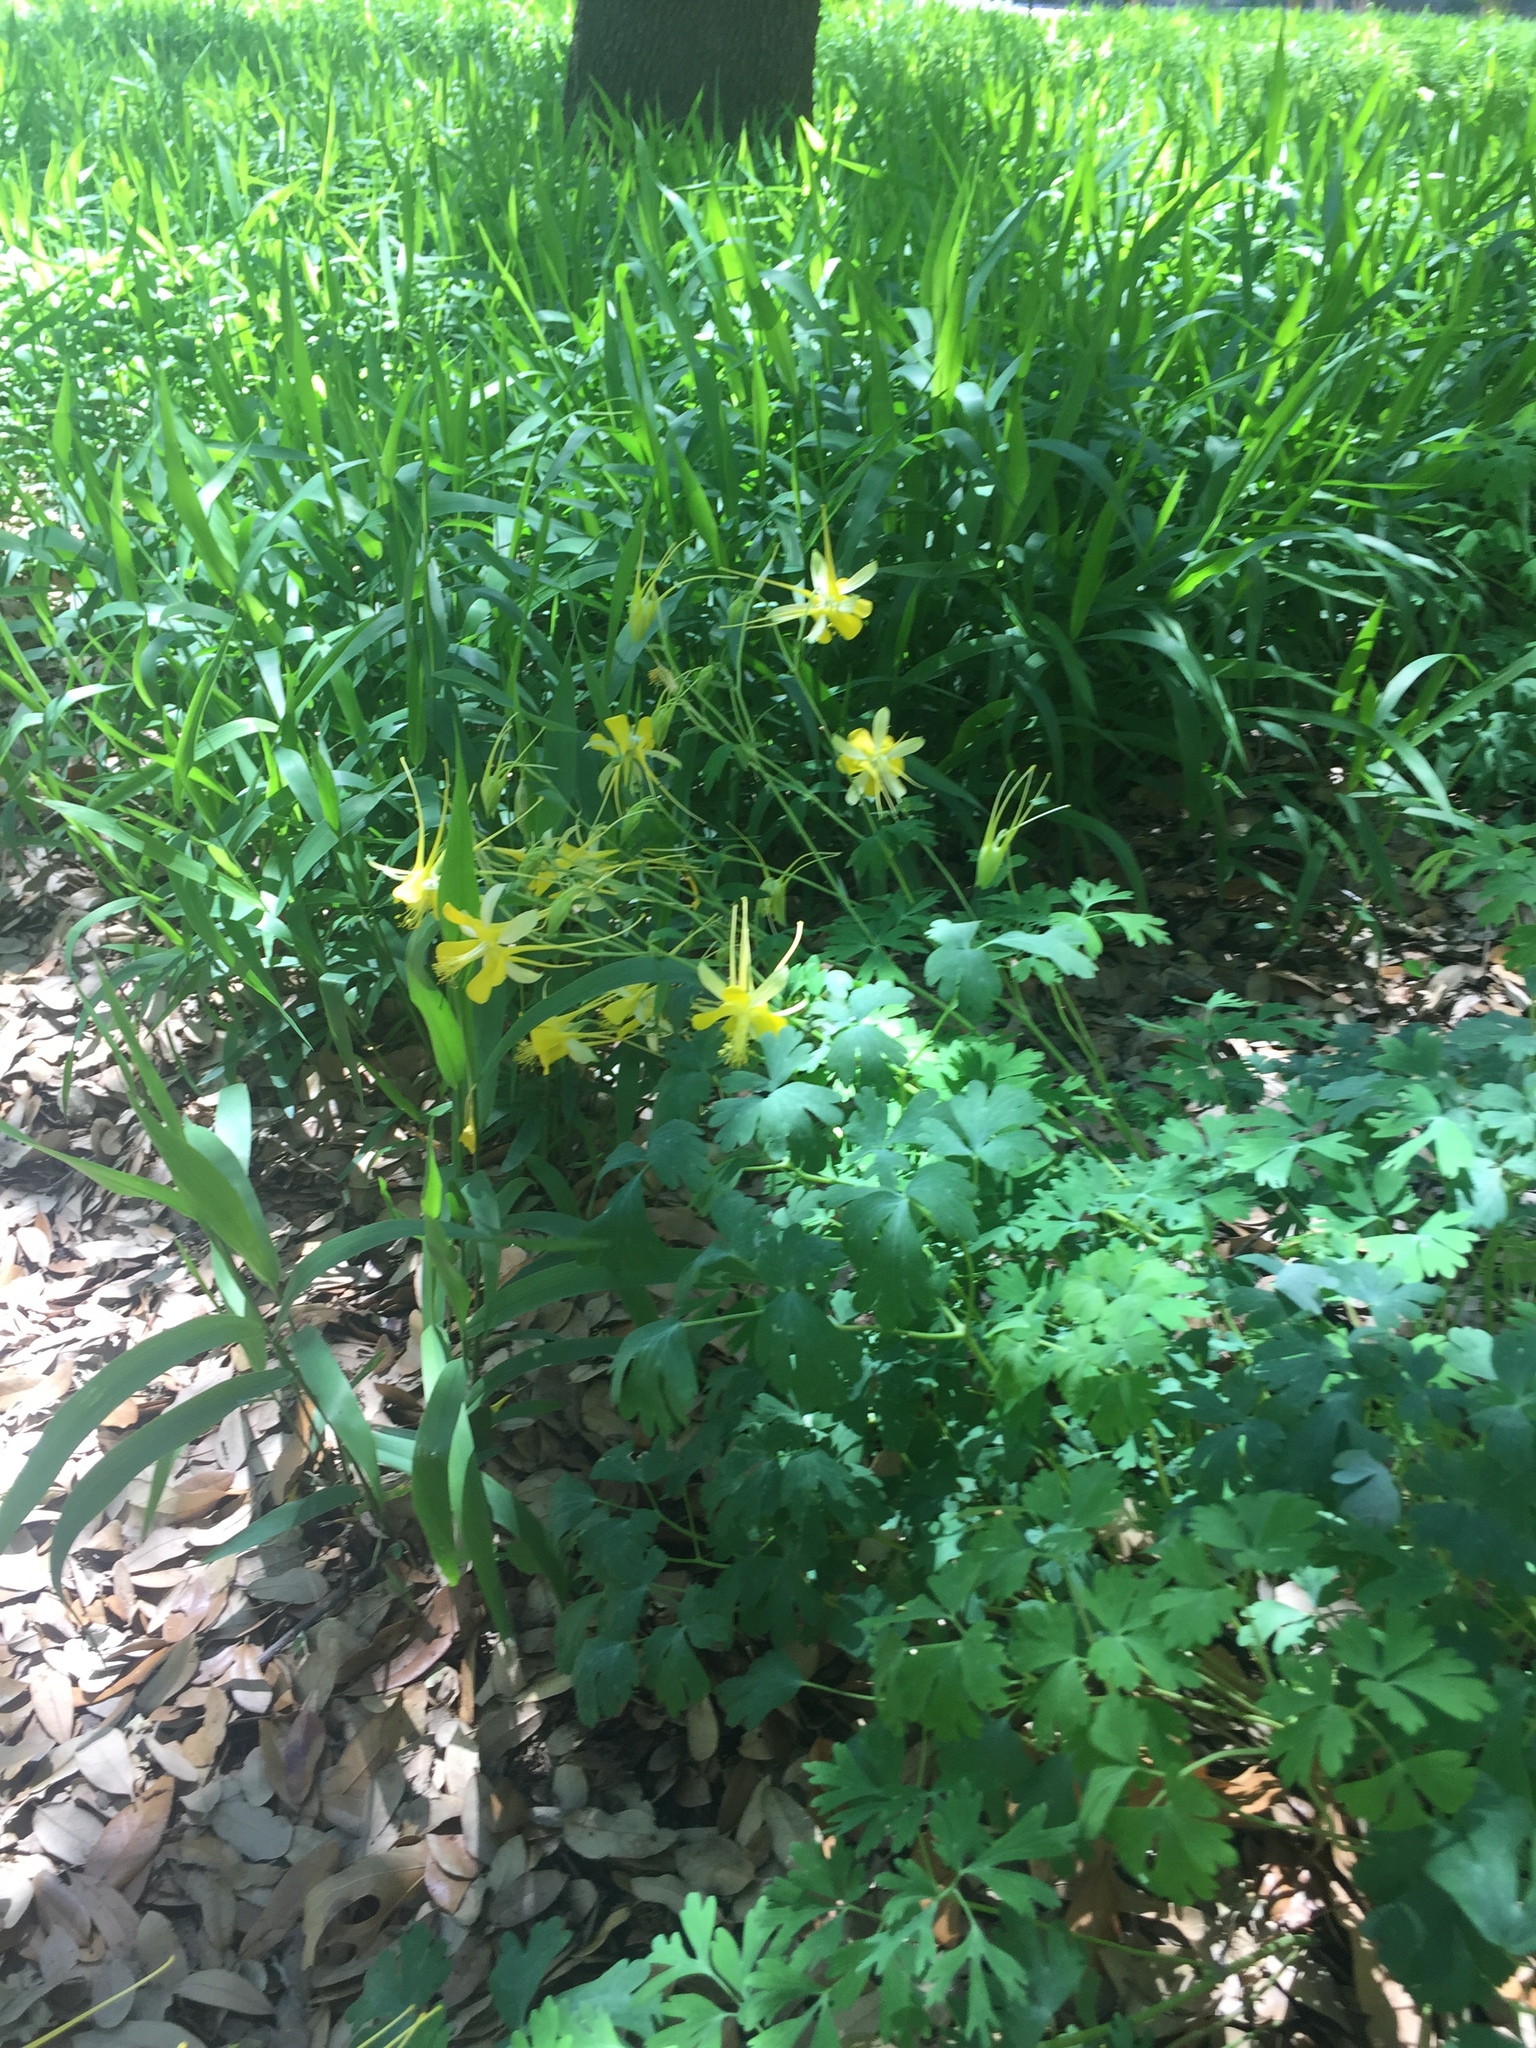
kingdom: Plantae
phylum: Tracheophyta
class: Magnoliopsida
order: Ranunculales
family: Ranunculaceae
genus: Aquilegia
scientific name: Aquilegia chrysantha
